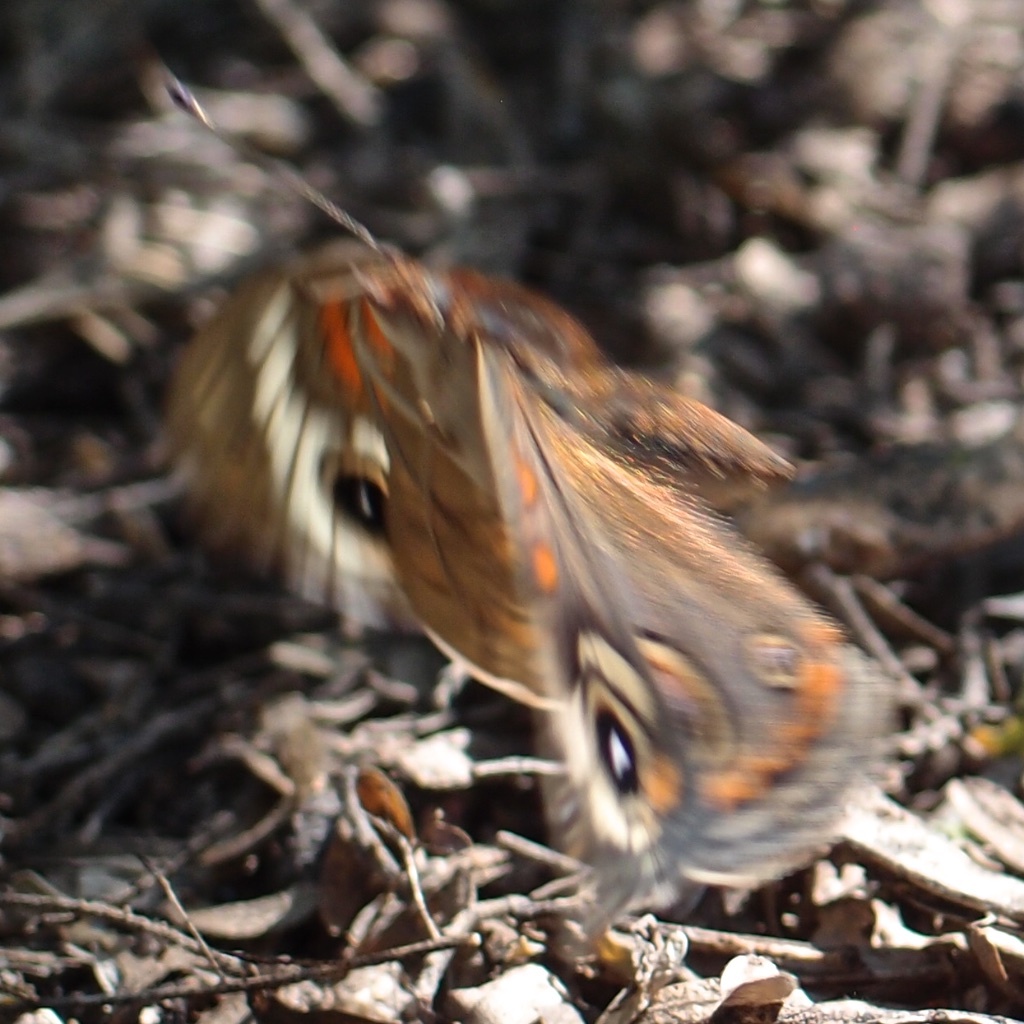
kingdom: Animalia
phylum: Arthropoda
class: Insecta
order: Lepidoptera
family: Nymphalidae
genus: Junonia
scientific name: Junonia grisea
